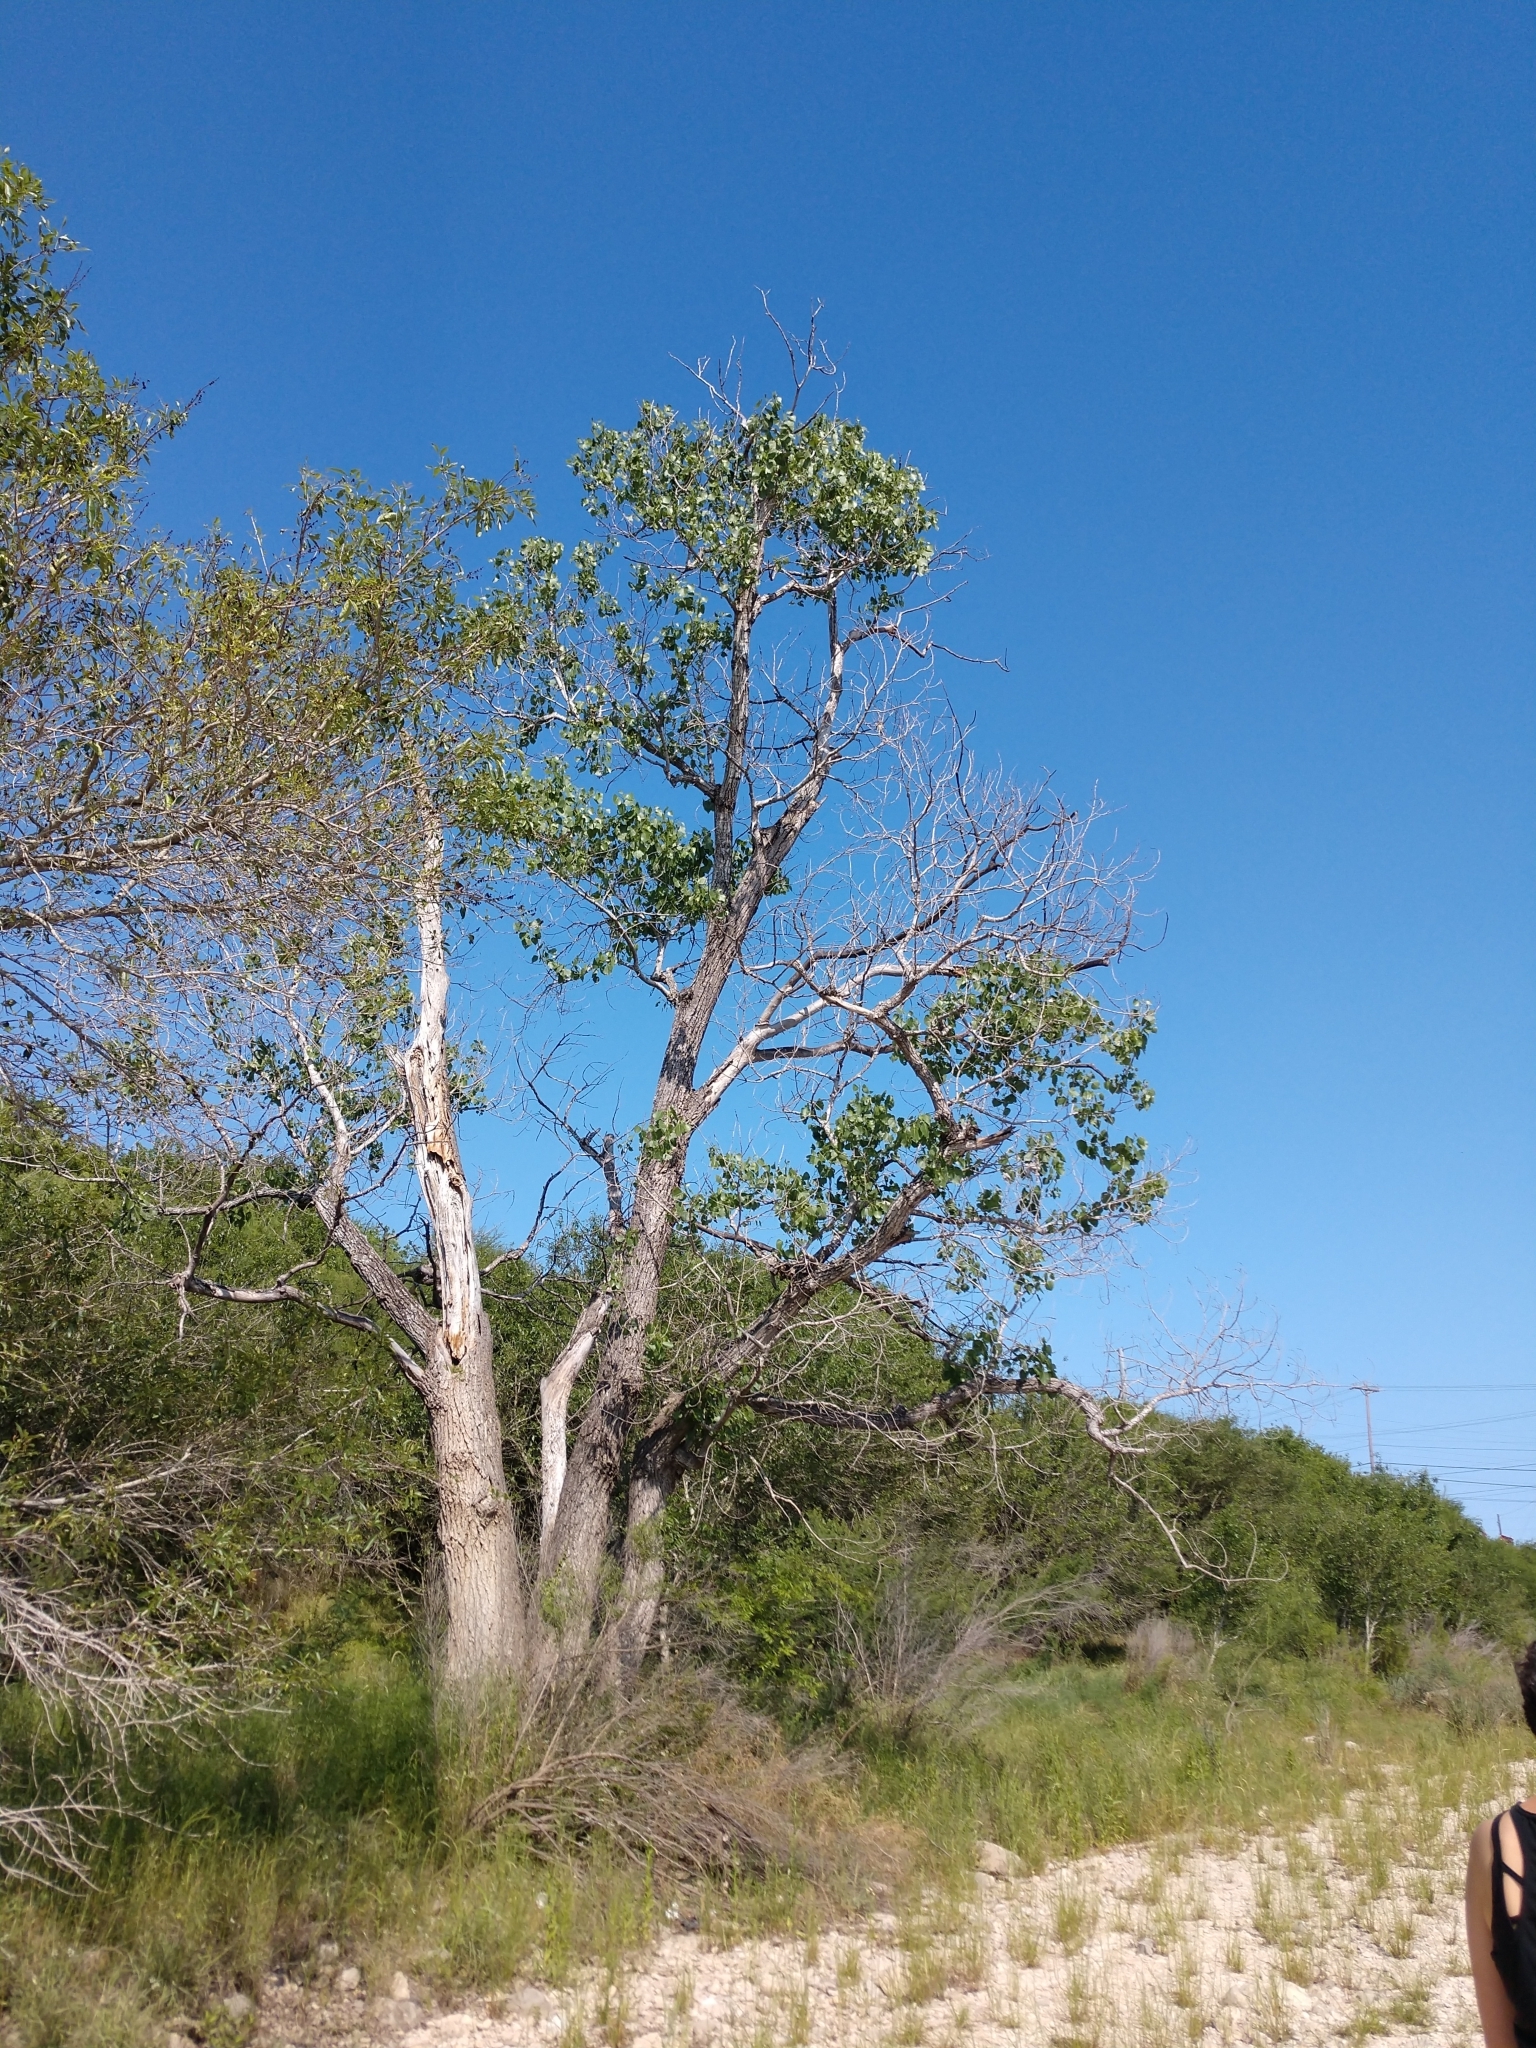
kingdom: Plantae
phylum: Tracheophyta
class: Magnoliopsida
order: Malpighiales
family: Salicaceae
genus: Populus
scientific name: Populus deltoides
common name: Eastern cottonwood
